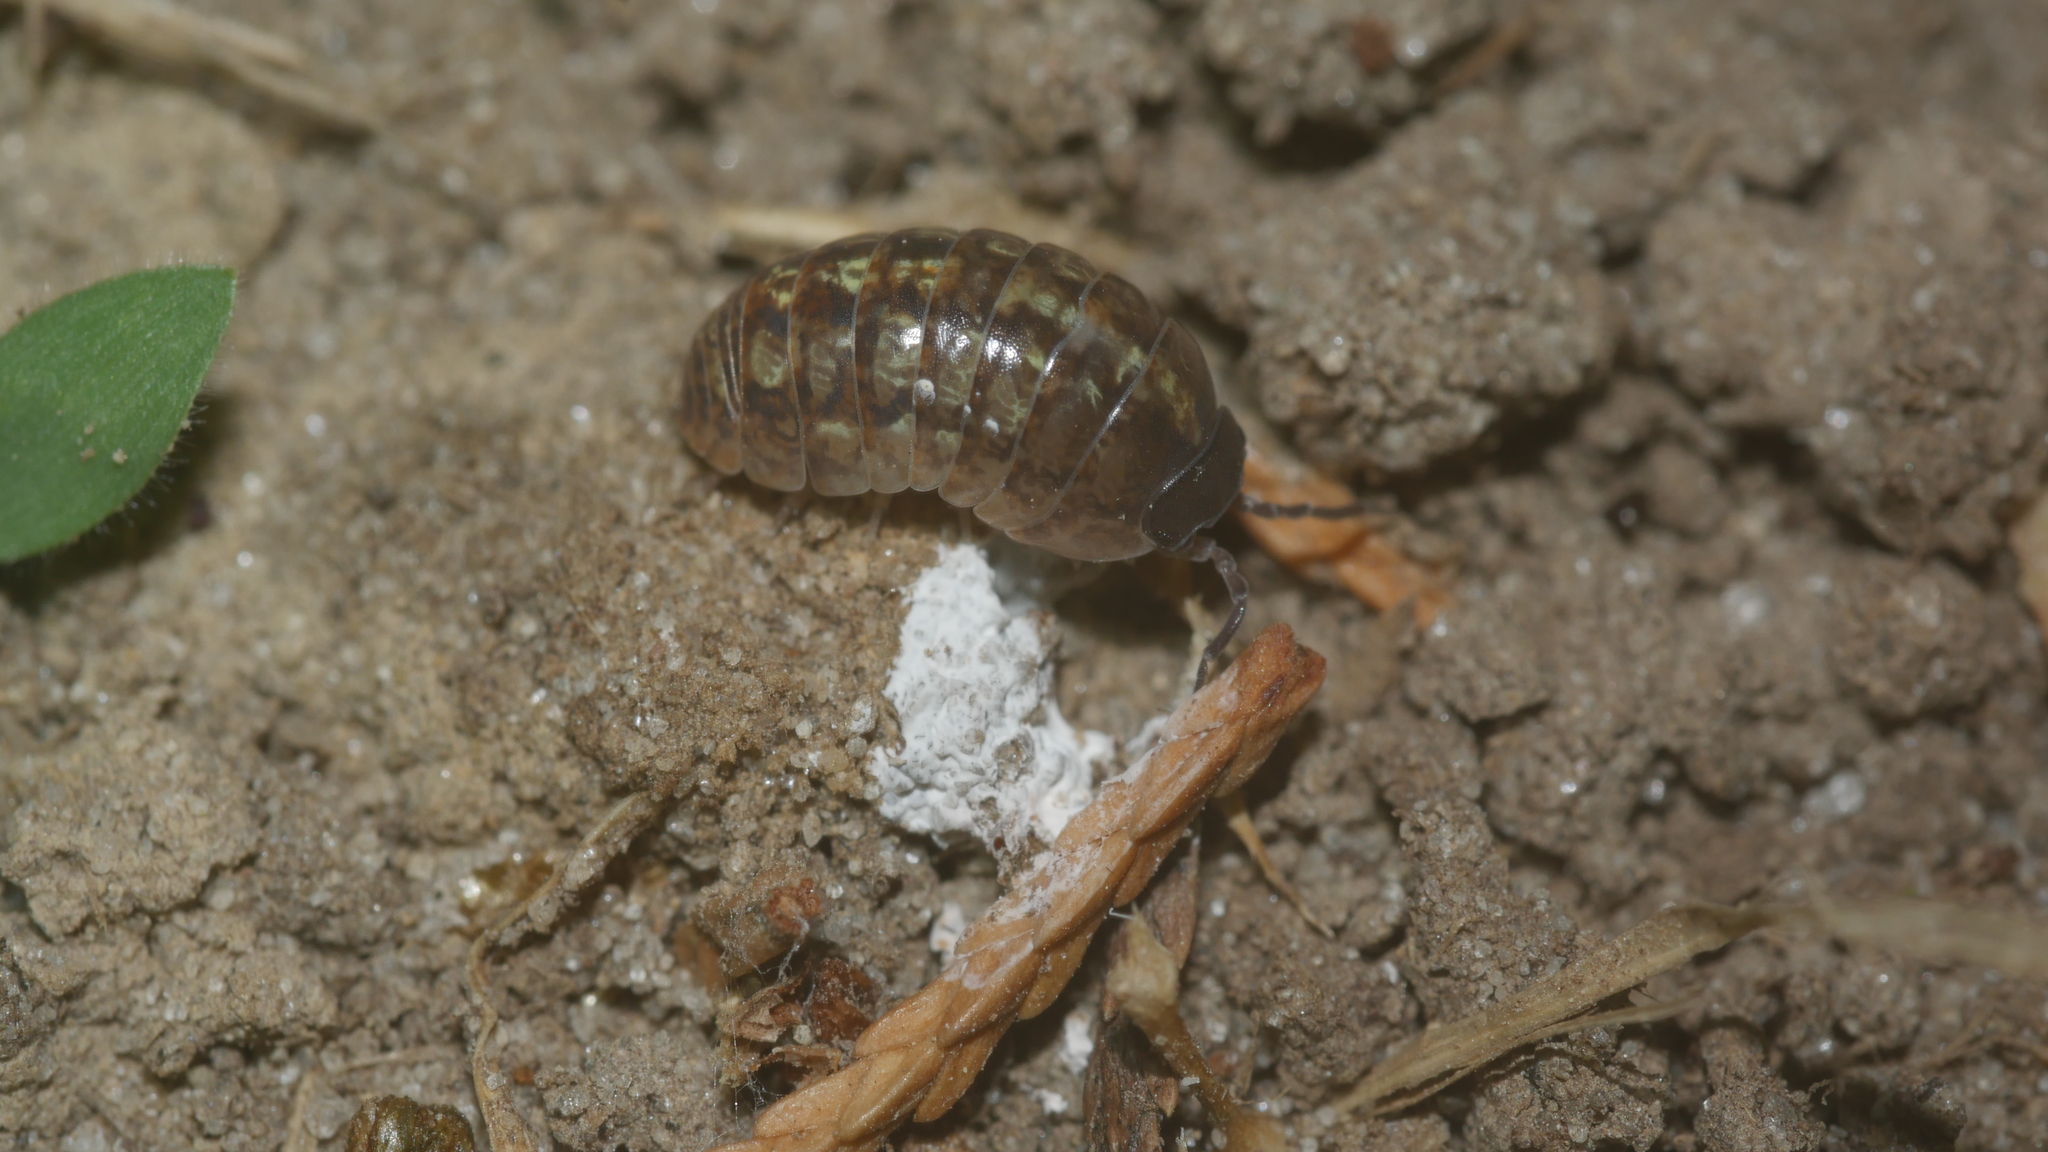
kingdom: Animalia
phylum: Arthropoda
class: Malacostraca
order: Isopoda
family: Armadillidiidae
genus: Armadillidium
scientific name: Armadillidium vulgare
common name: Common pill woodlouse
